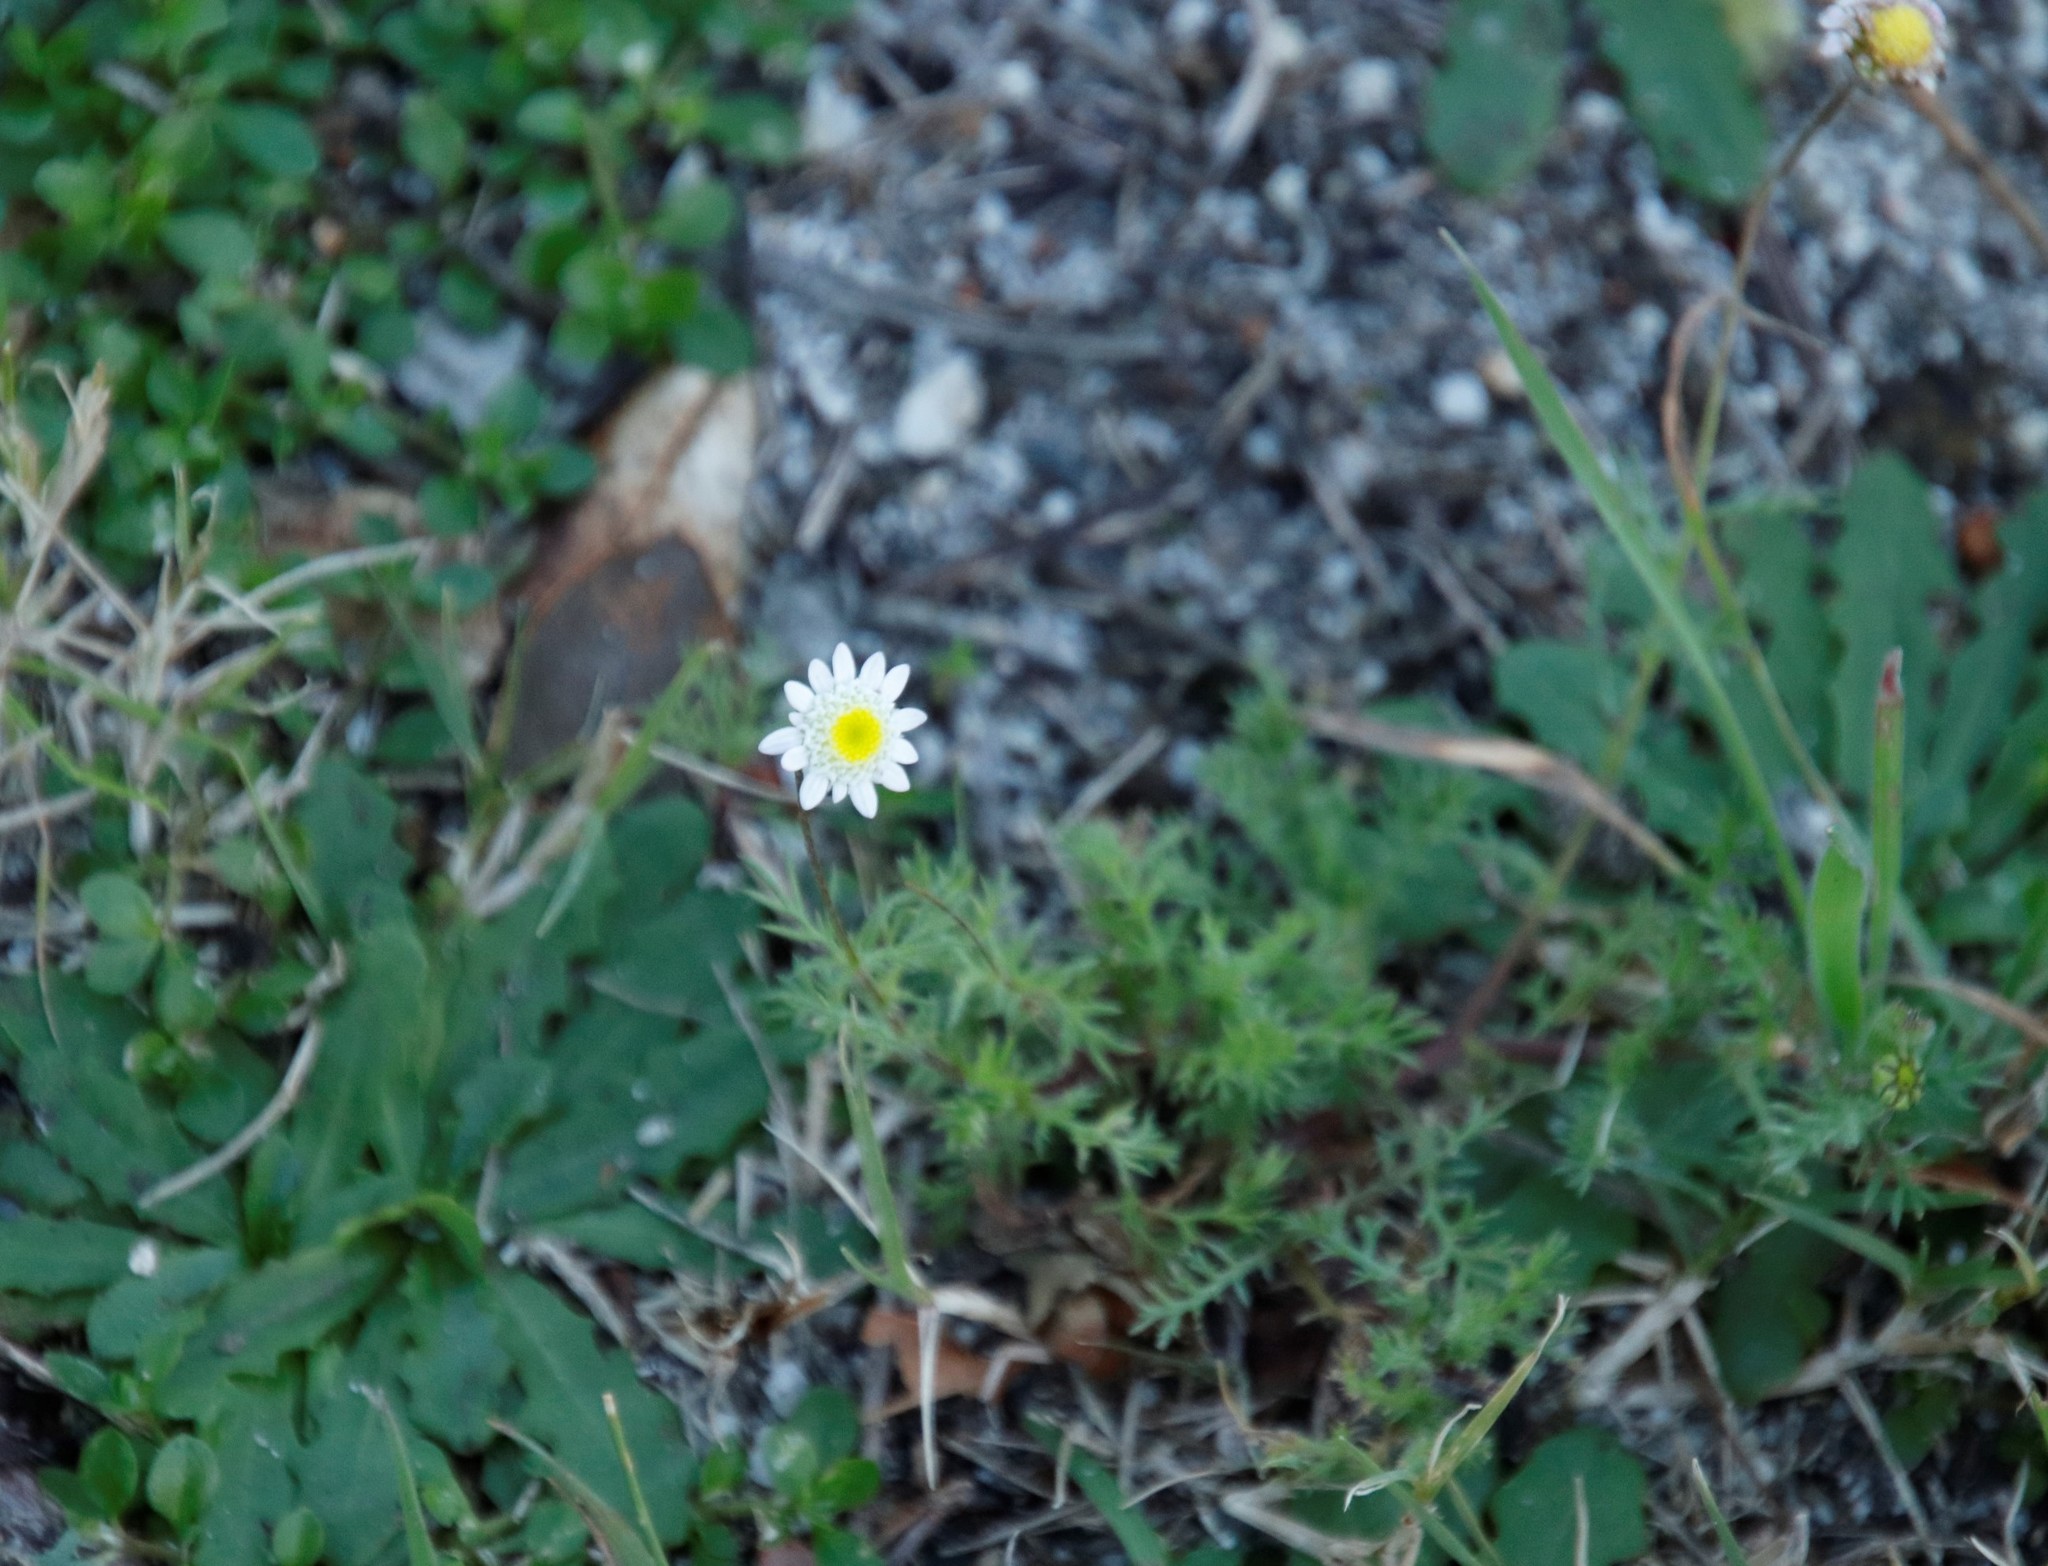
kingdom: Plantae
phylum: Tracheophyta
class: Magnoliopsida
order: Asterales
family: Asteraceae
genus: Cotula
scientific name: Cotula turbinata
